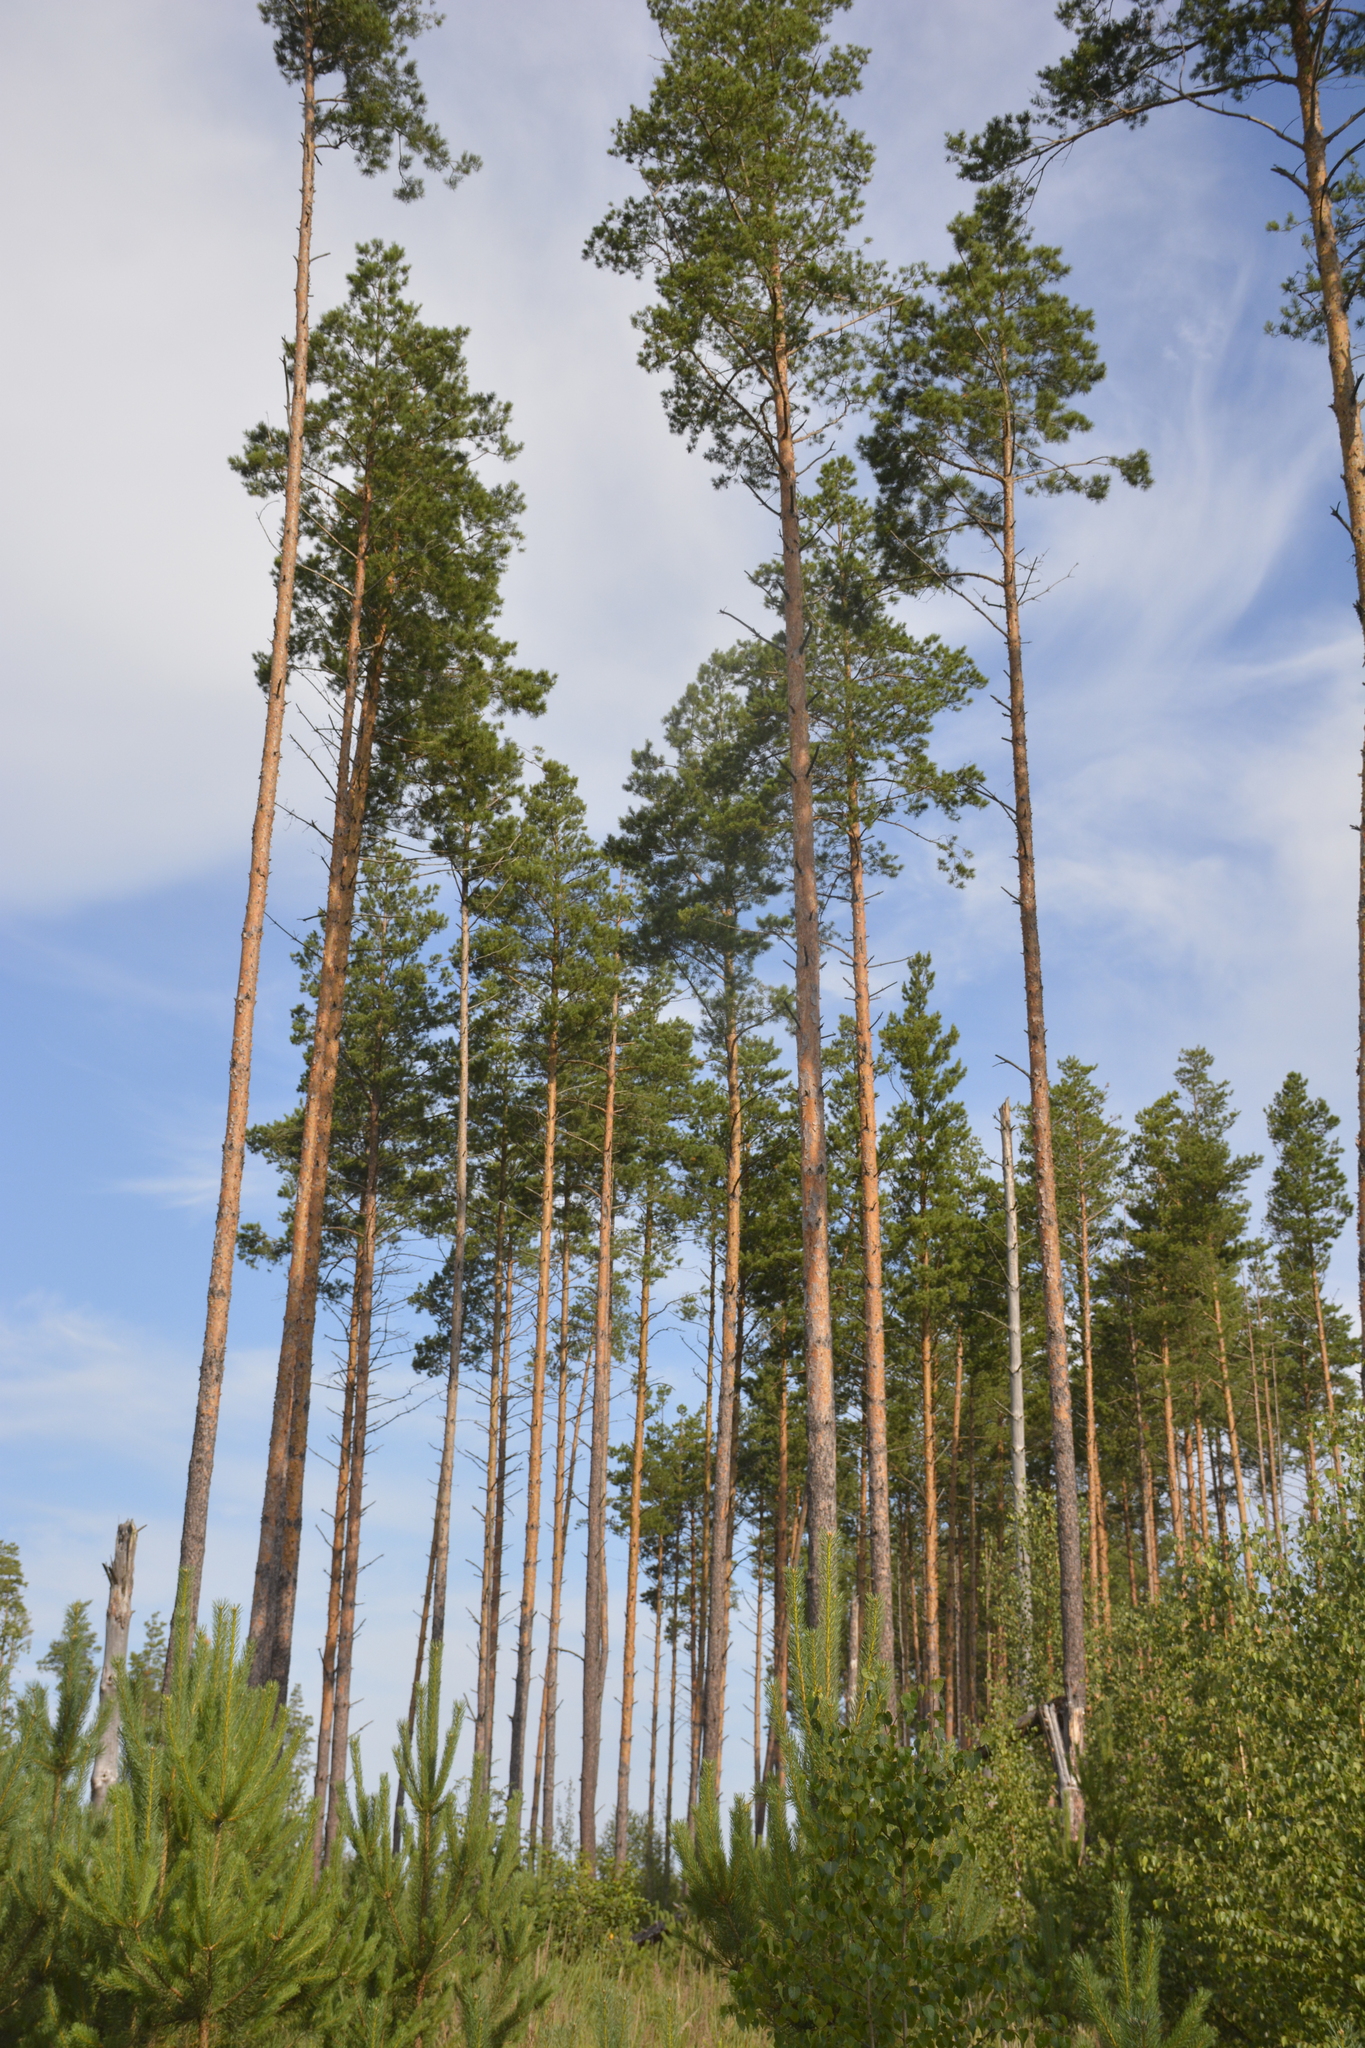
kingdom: Plantae
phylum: Tracheophyta
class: Pinopsida
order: Pinales
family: Pinaceae
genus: Pinus
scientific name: Pinus sylvestris
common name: Scots pine
